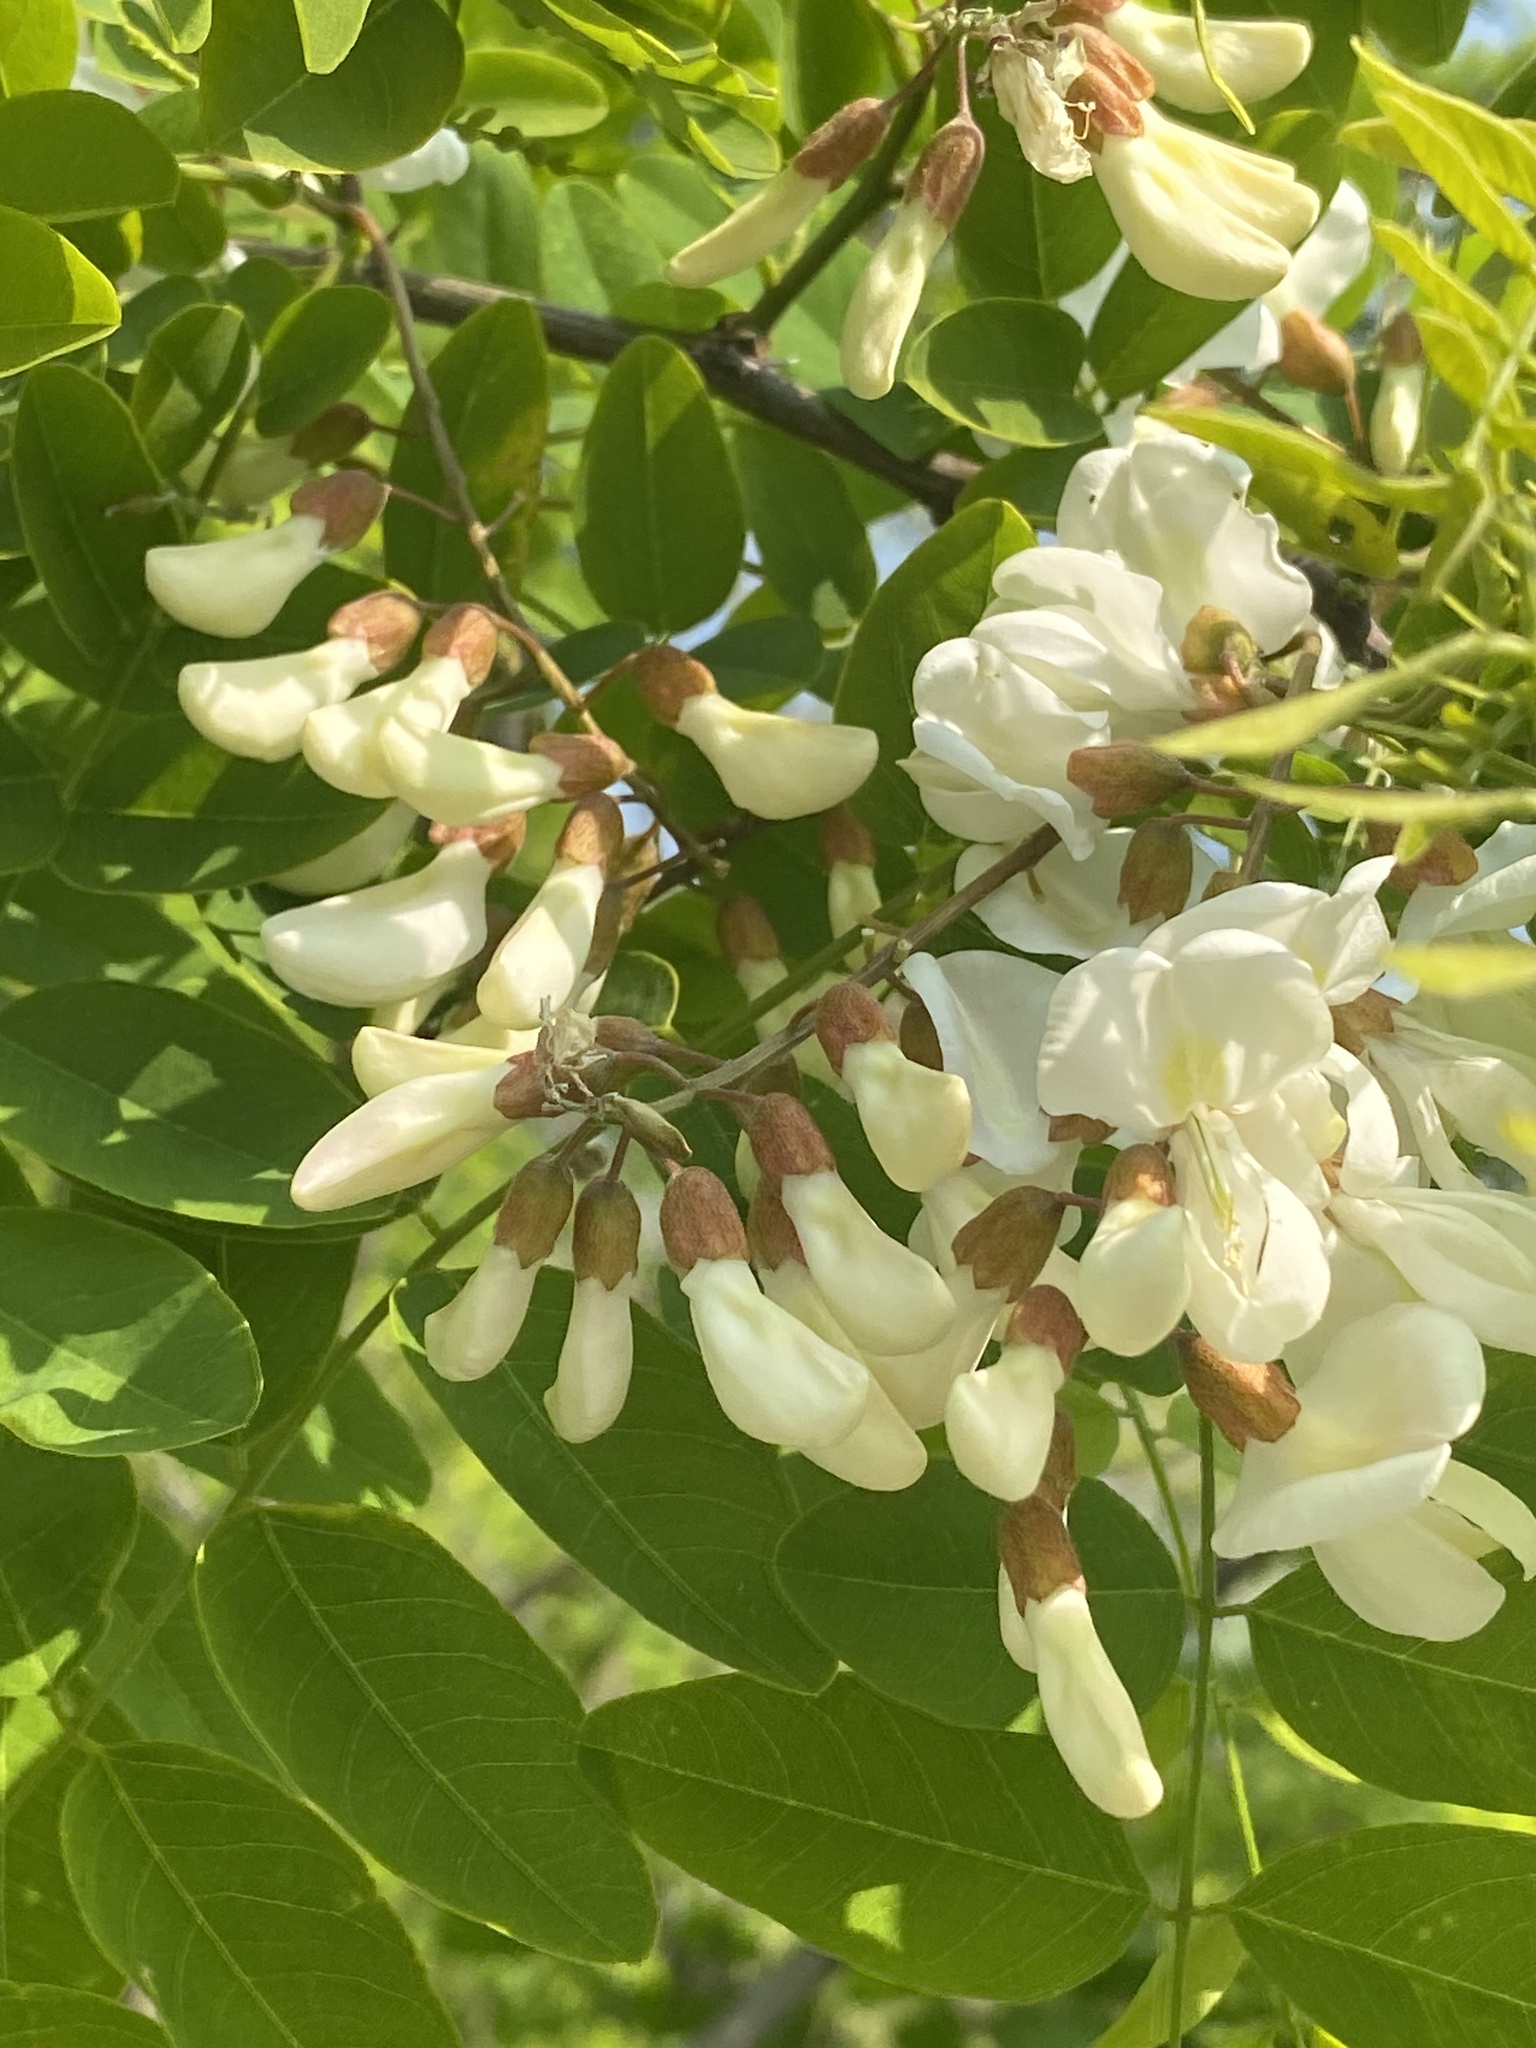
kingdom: Plantae
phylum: Tracheophyta
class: Magnoliopsida
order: Fabales
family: Fabaceae
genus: Robinia
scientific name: Robinia pseudoacacia
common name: Black locust
